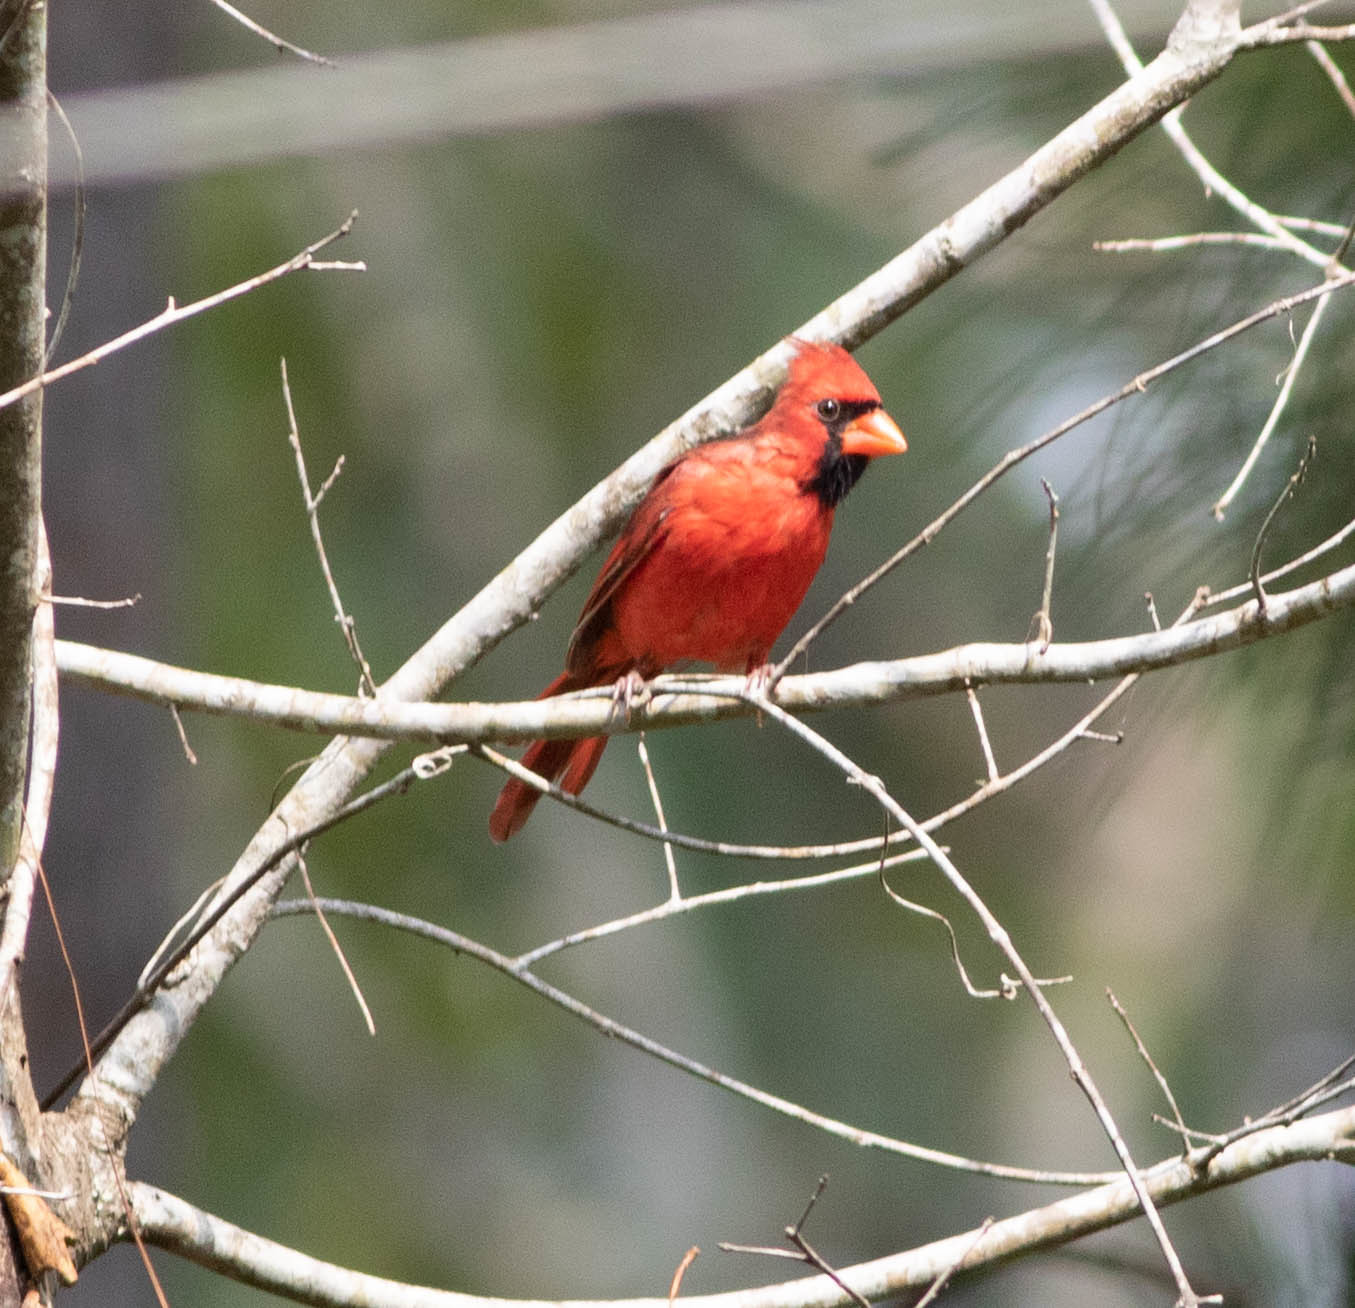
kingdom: Animalia
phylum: Chordata
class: Aves
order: Passeriformes
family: Cardinalidae
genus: Cardinalis
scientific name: Cardinalis cardinalis
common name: Northern cardinal
